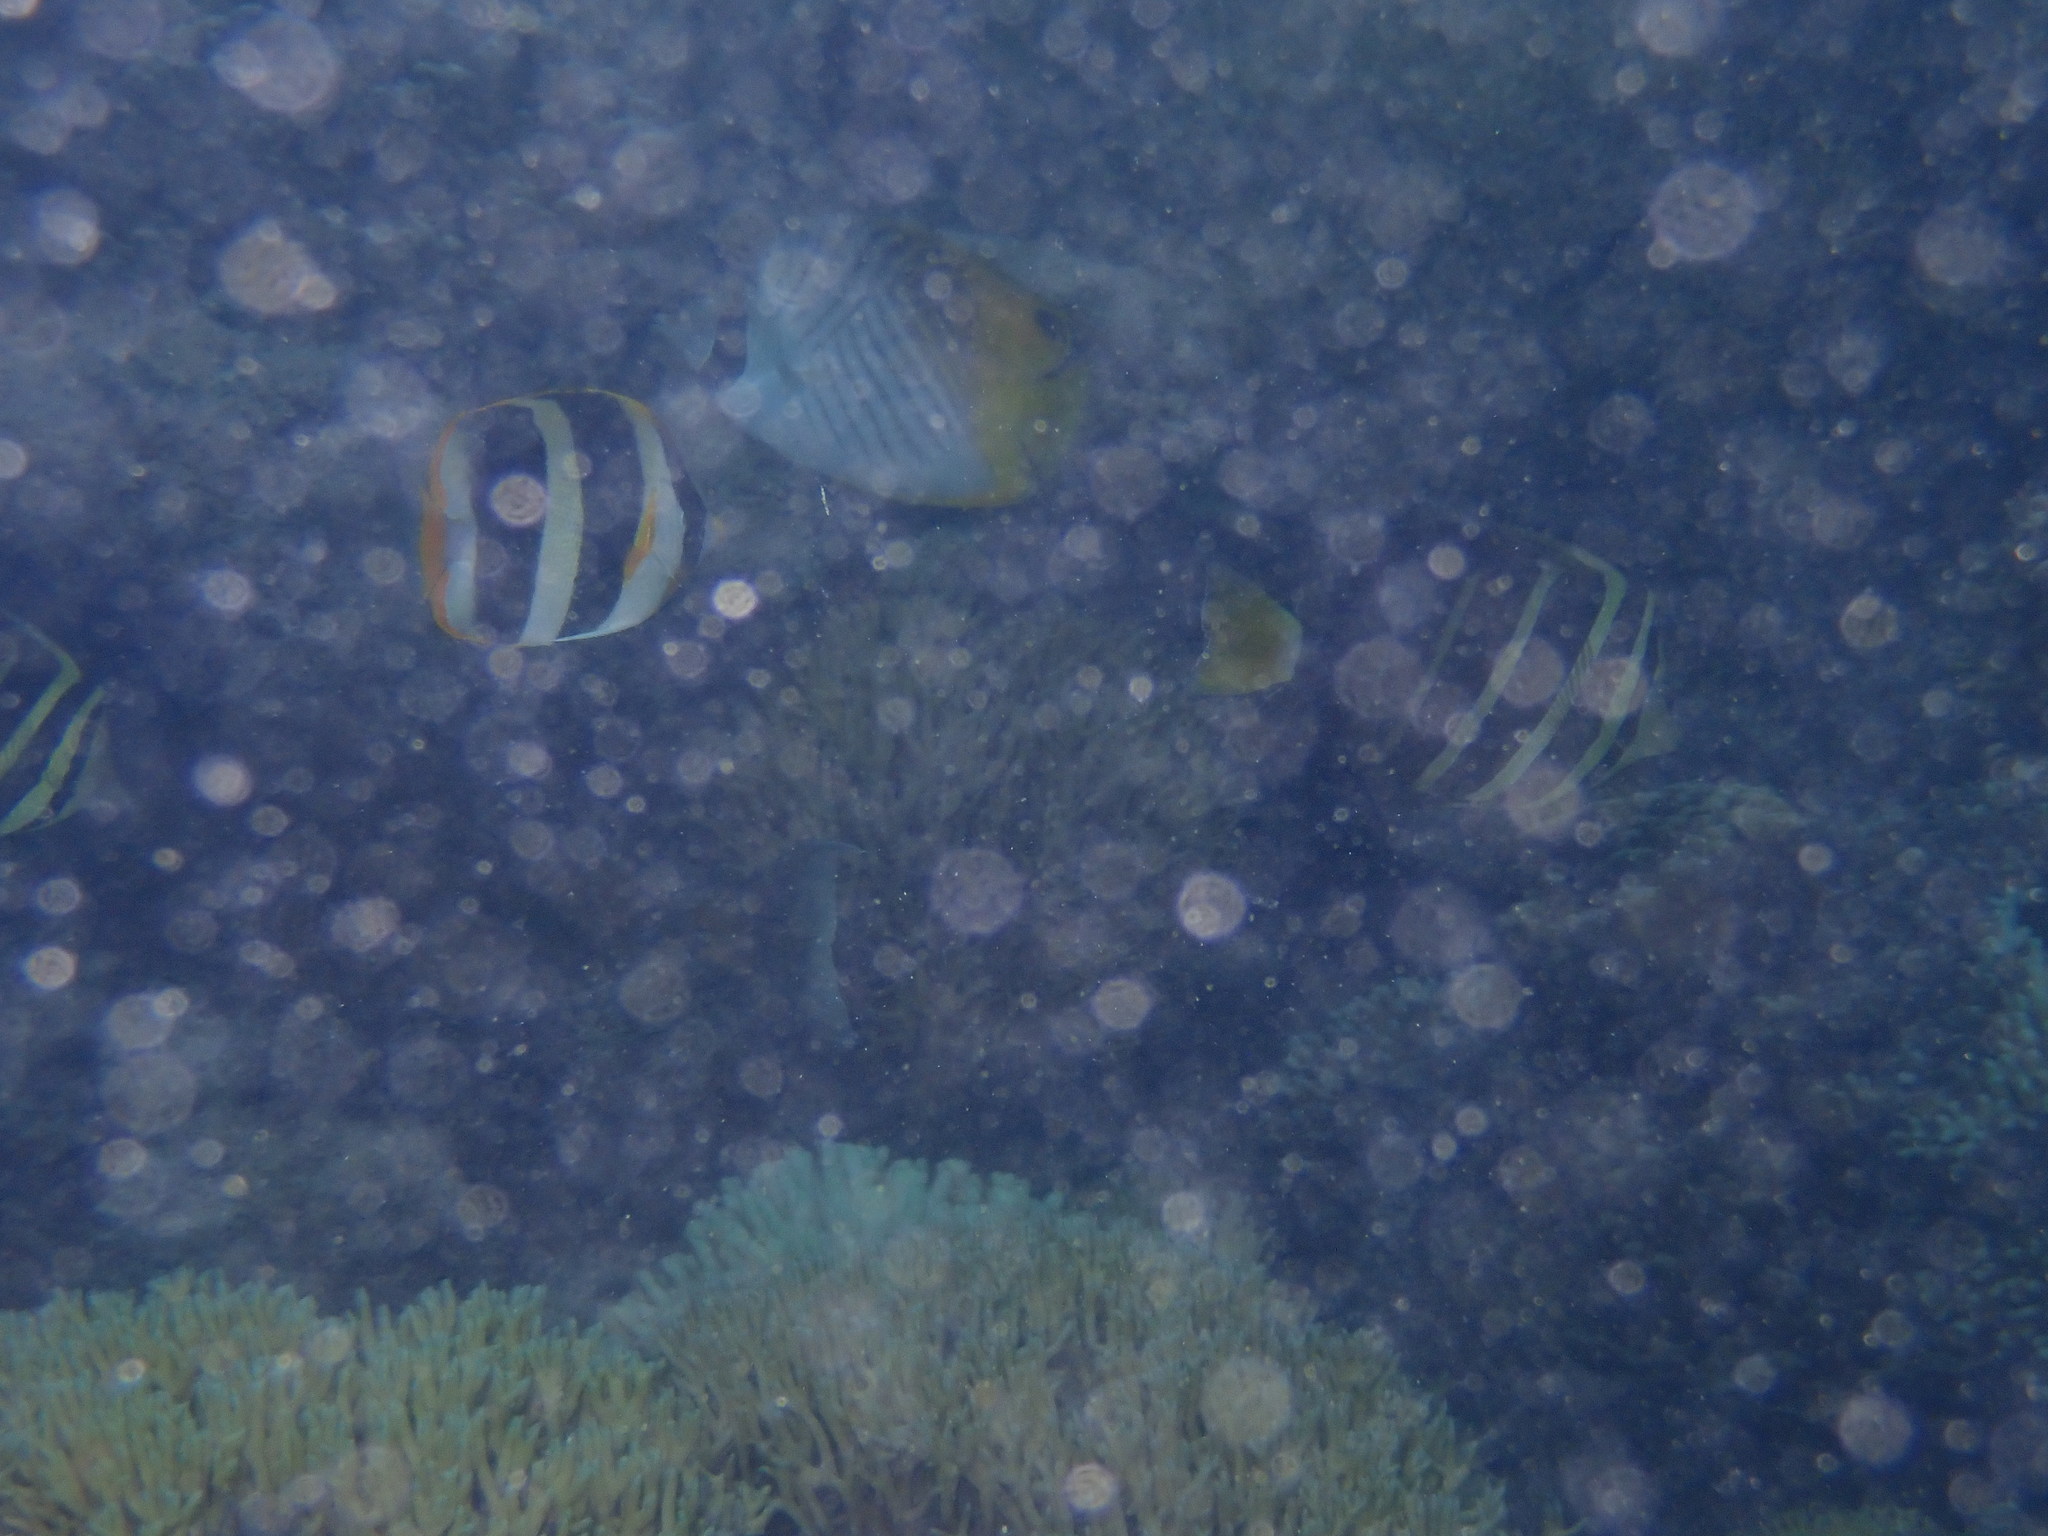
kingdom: Animalia
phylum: Chordata
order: Perciformes
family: Chaetodontidae
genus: Chaetodon
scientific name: Chaetodon auriga
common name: Threadfin butterflyfish
